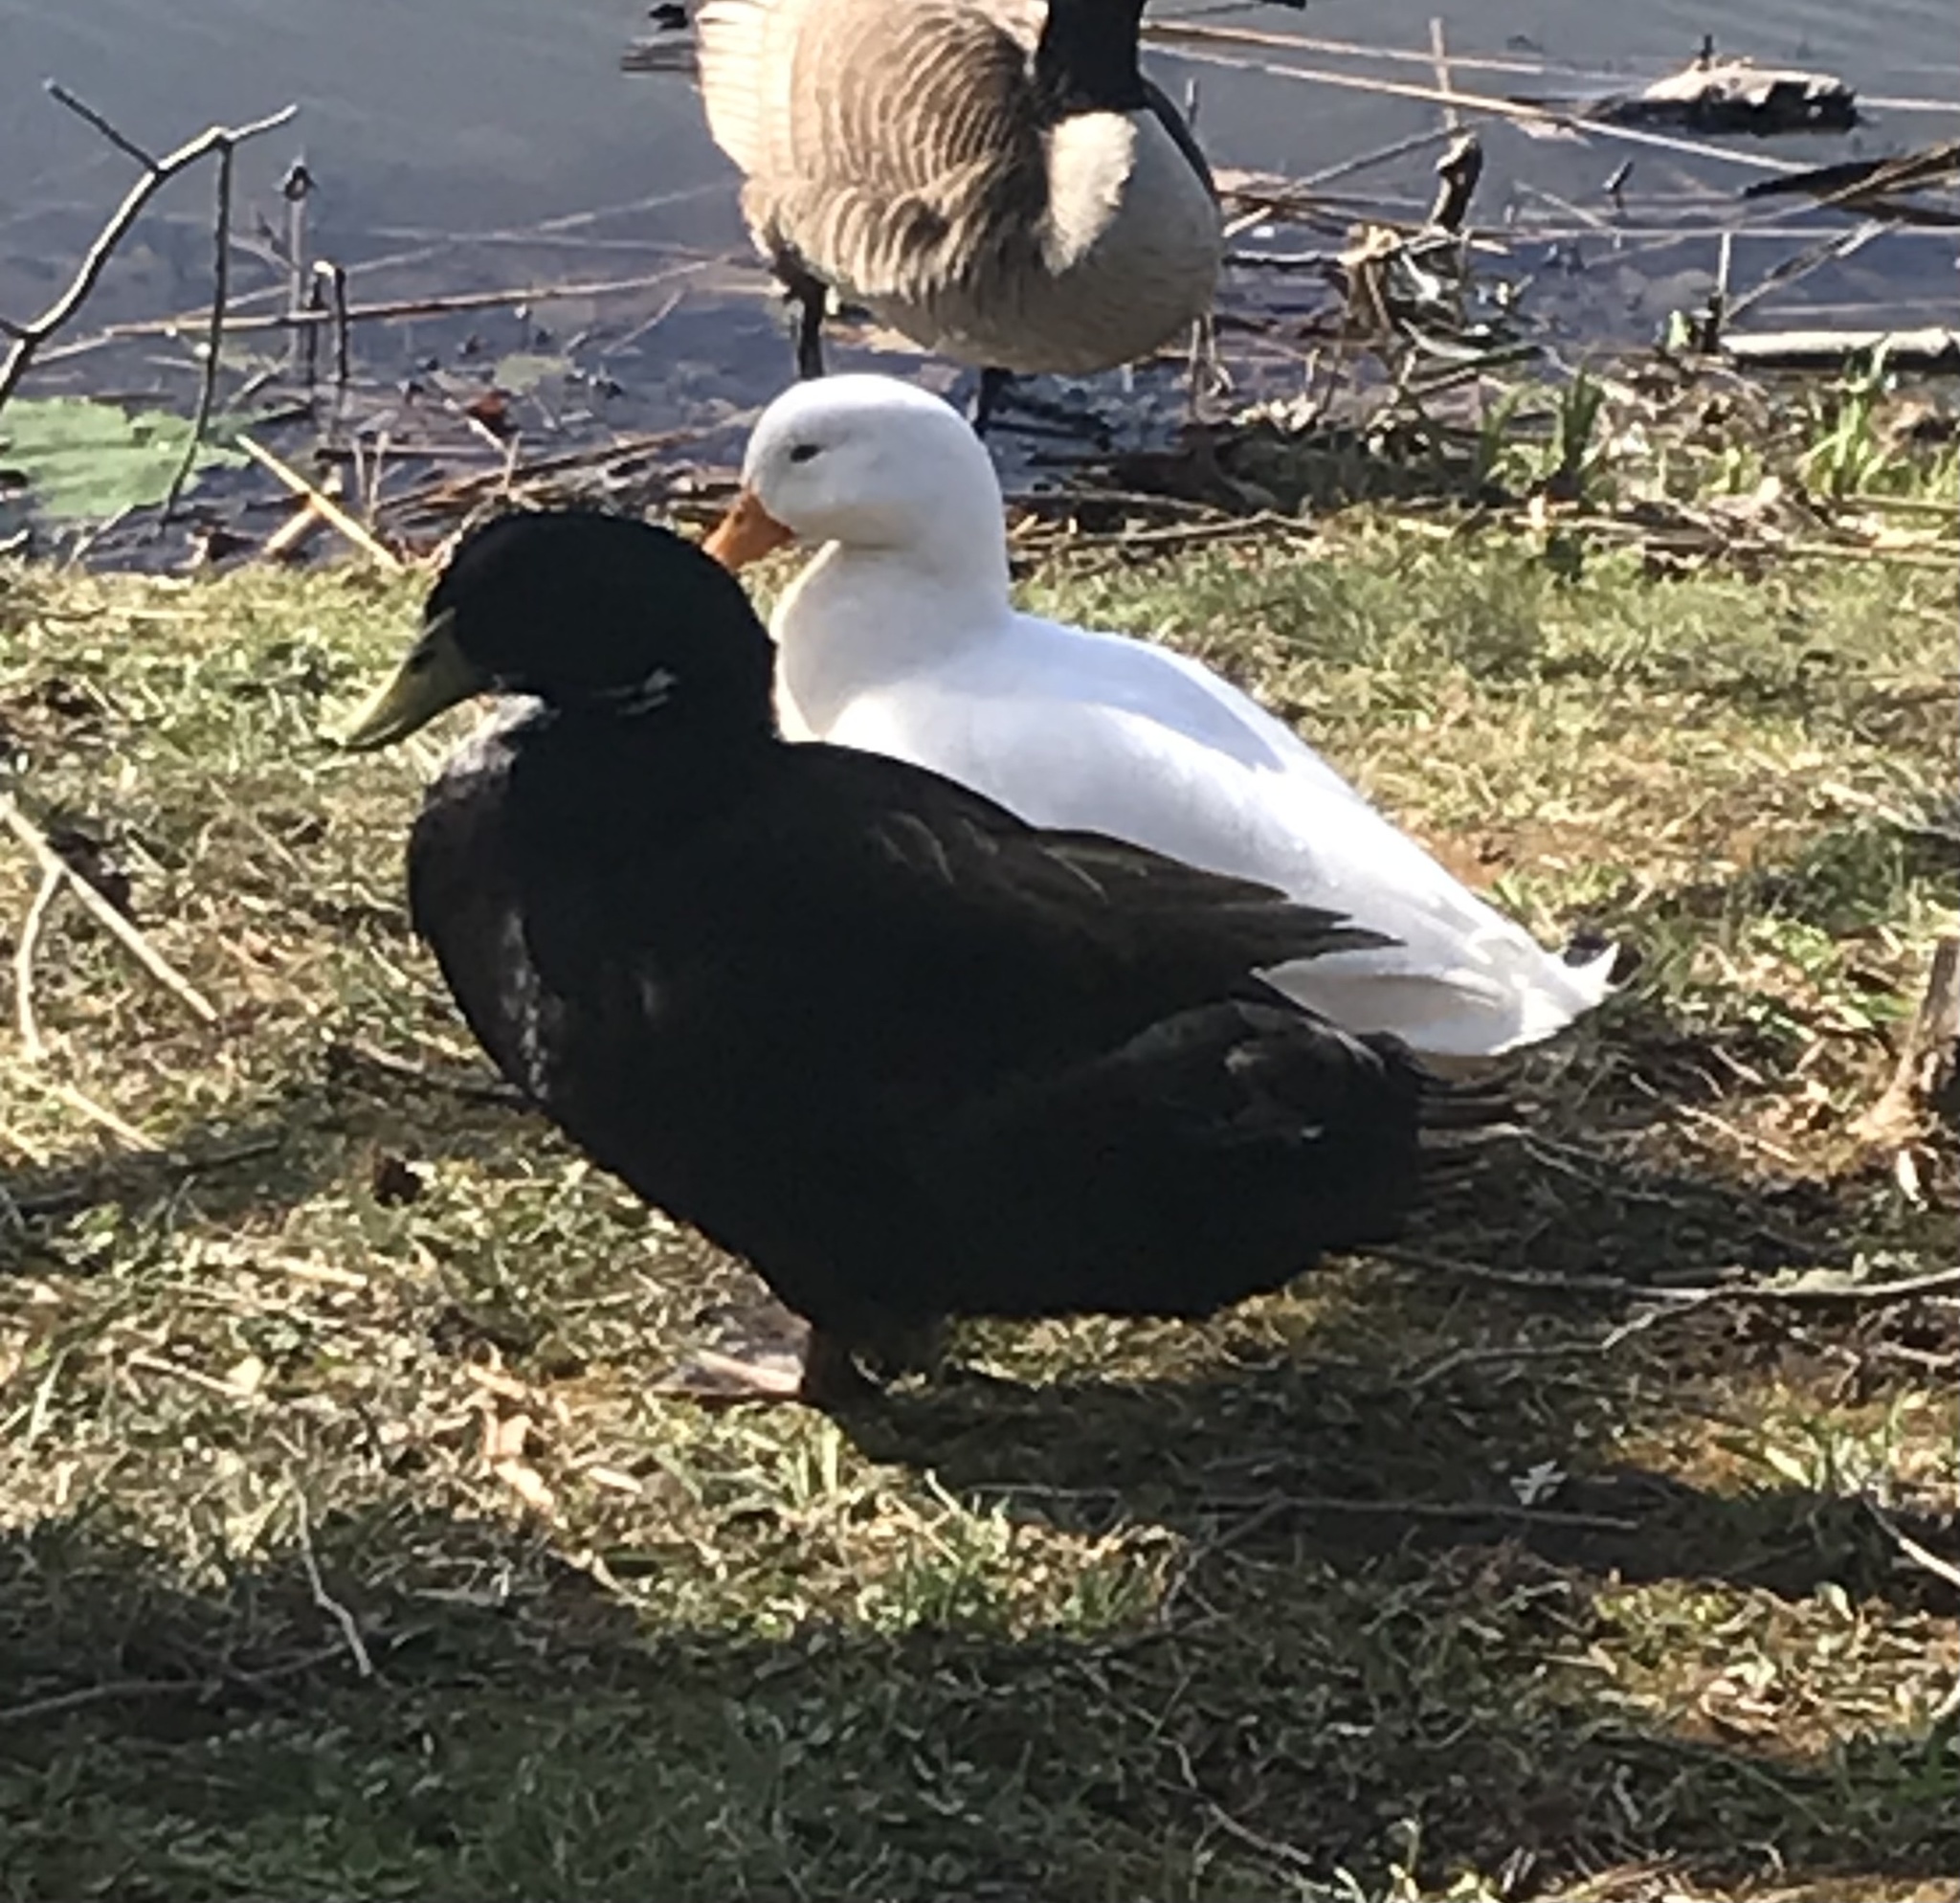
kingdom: Animalia
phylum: Chordata
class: Aves
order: Anseriformes
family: Anatidae
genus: Anas
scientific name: Anas platyrhynchos
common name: Mallard
